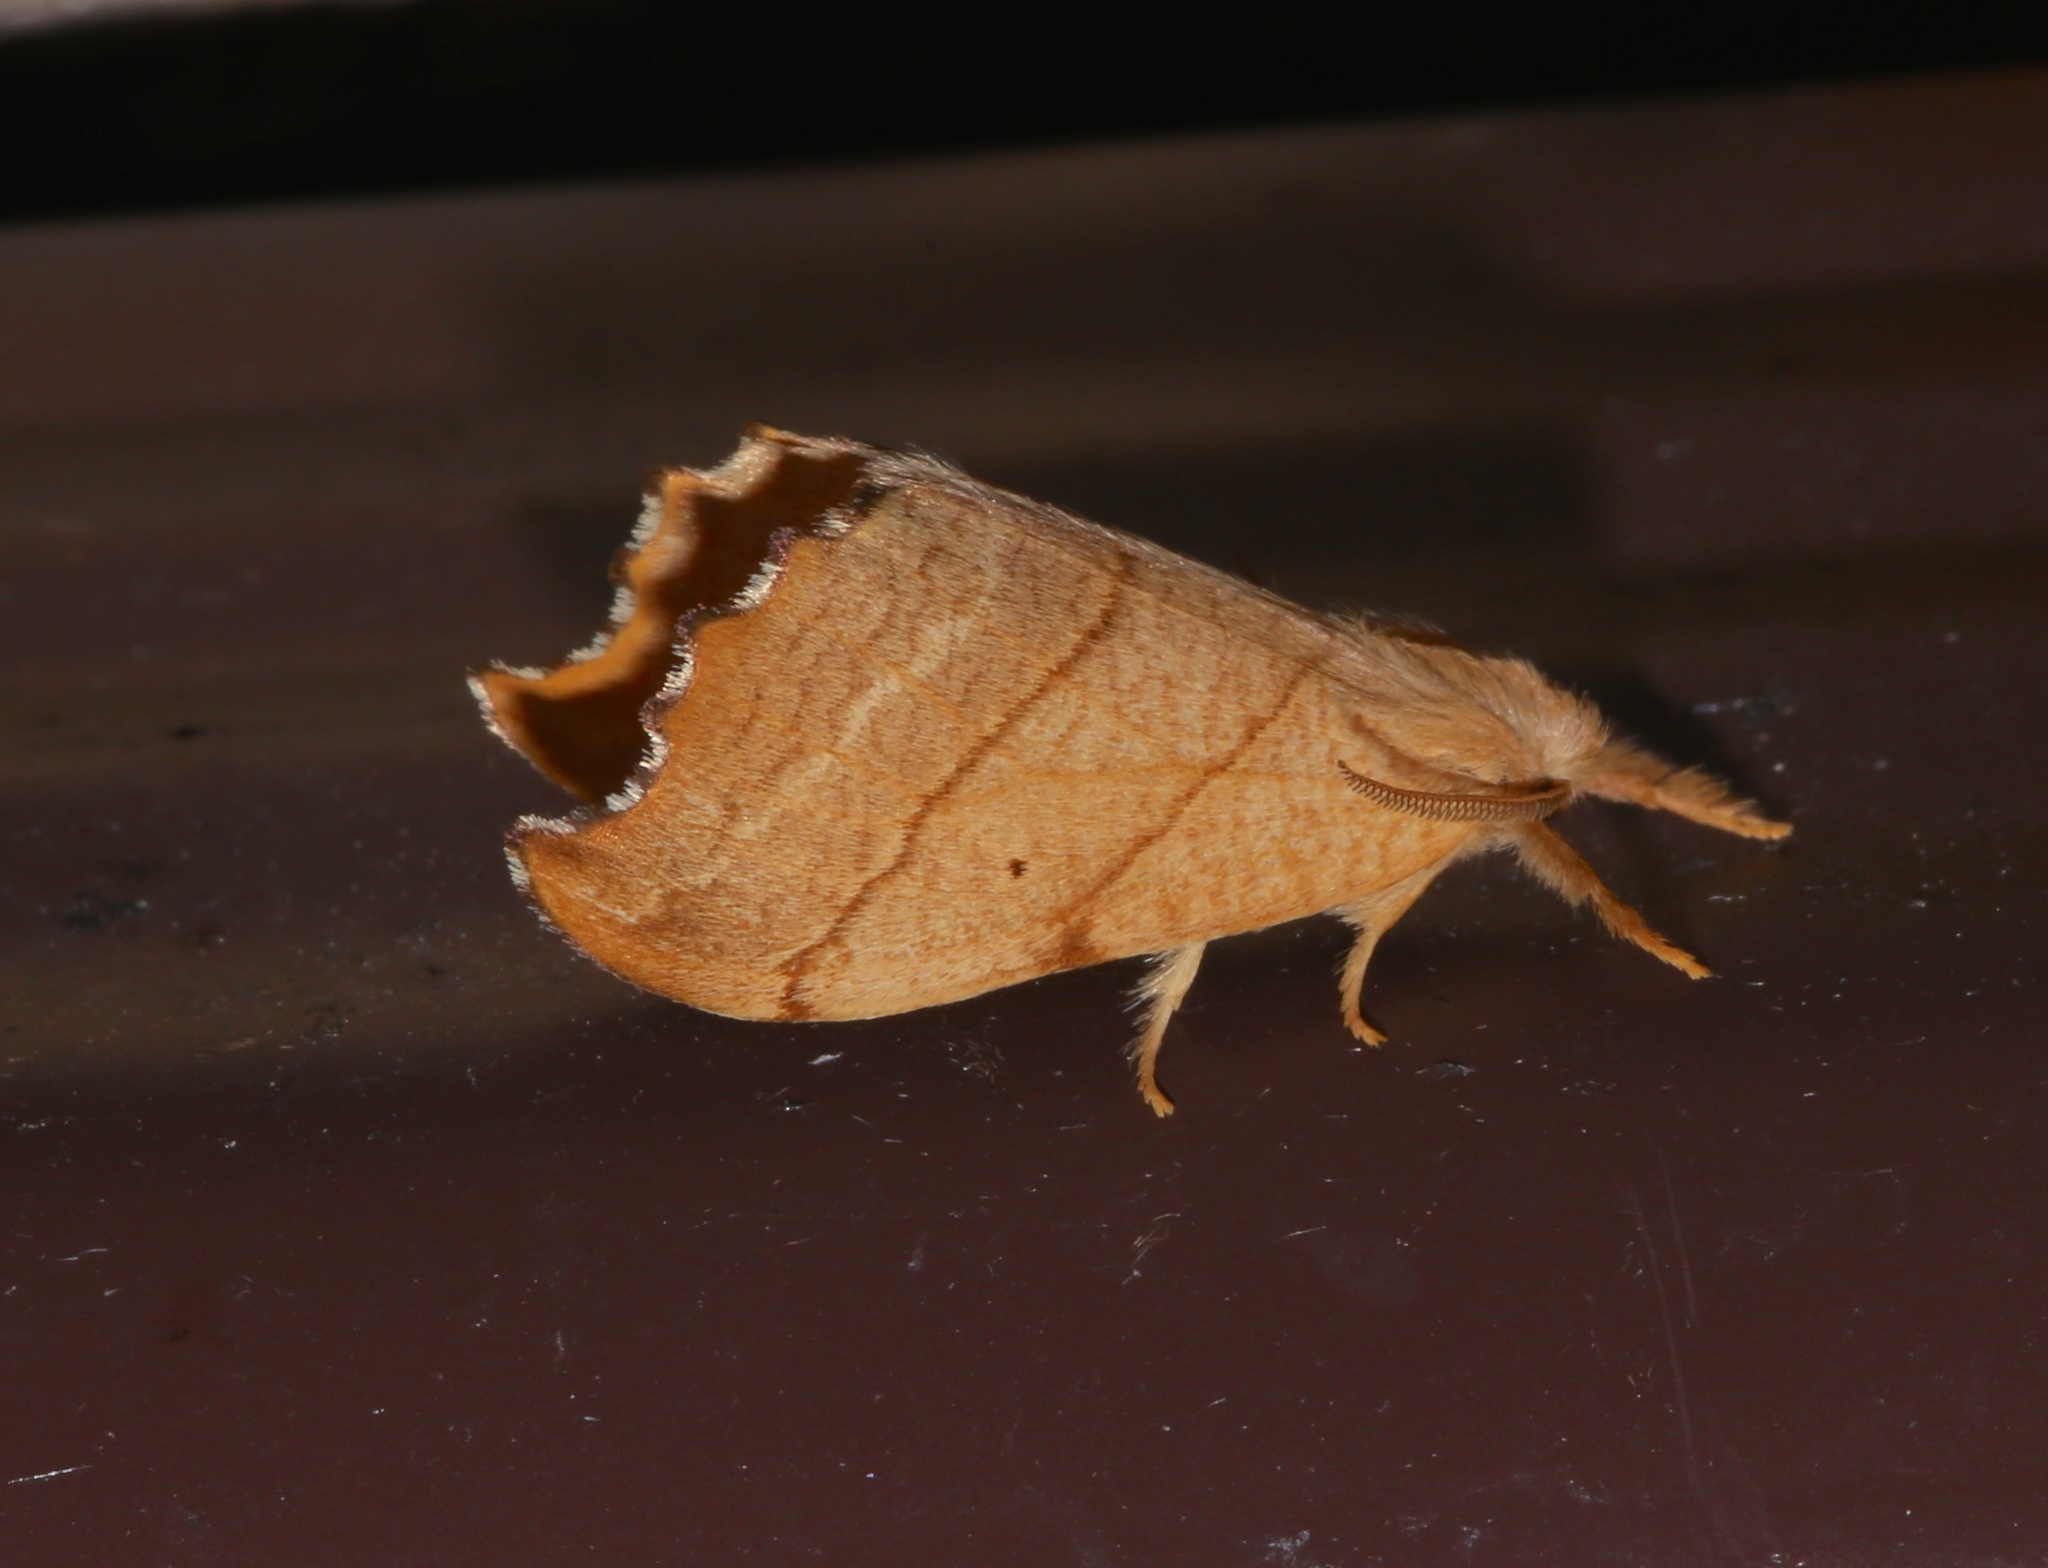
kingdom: Animalia
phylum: Arthropoda
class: Insecta
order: Lepidoptera
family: Drepanidae
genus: Falcaria
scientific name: Falcaria bilineata
